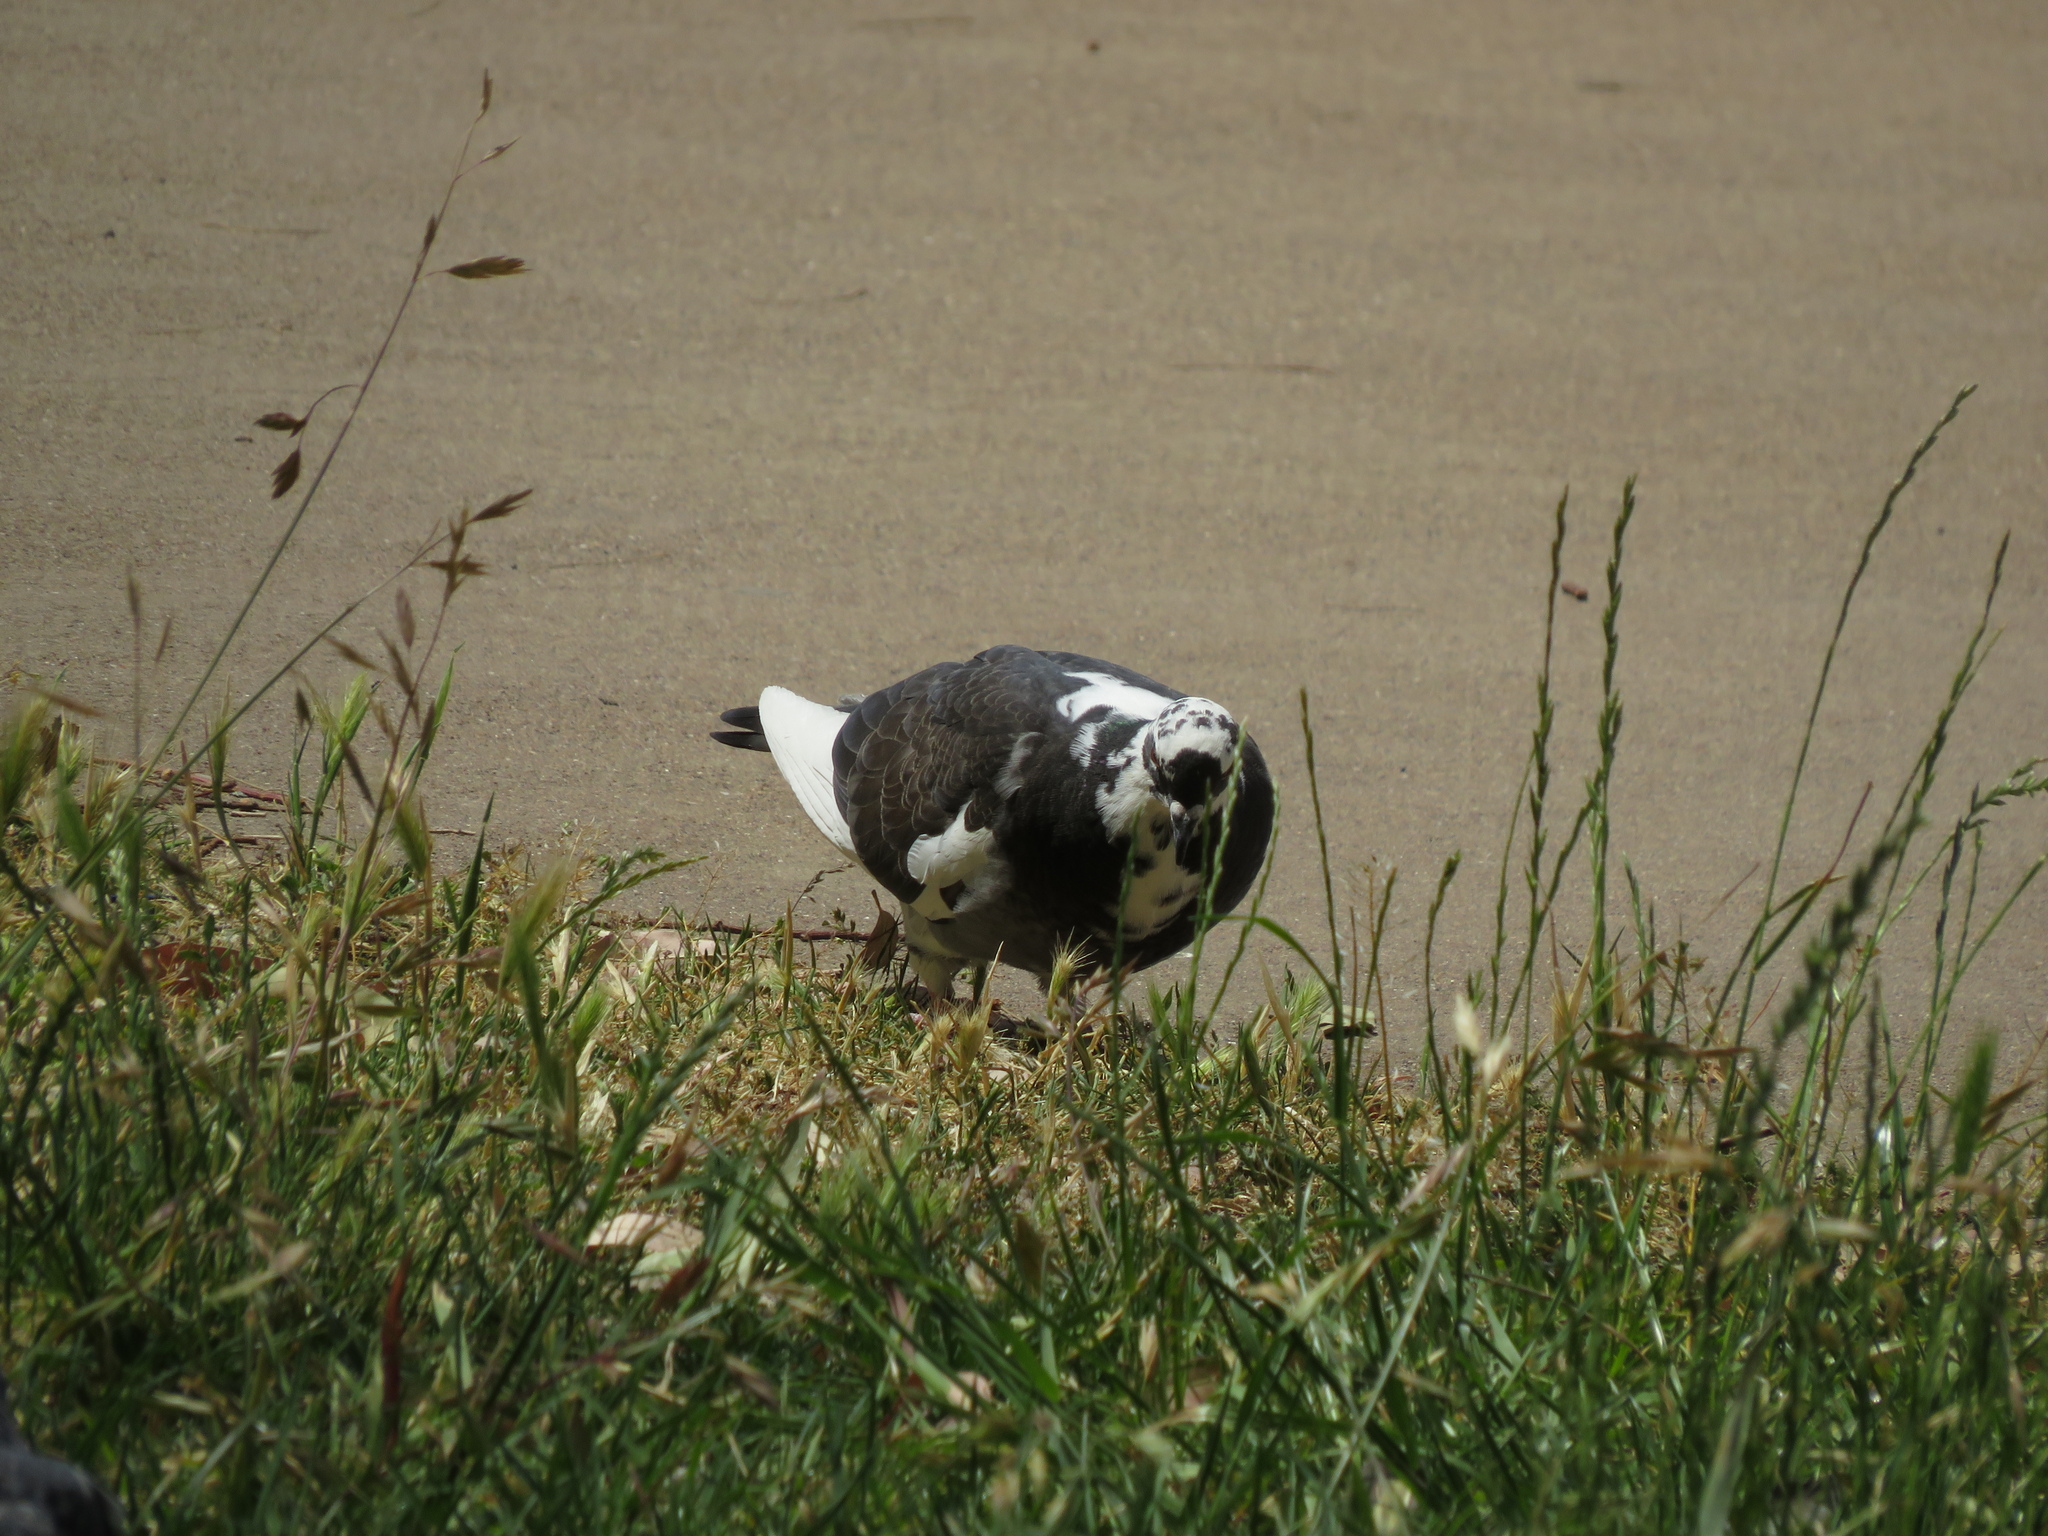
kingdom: Animalia
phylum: Chordata
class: Aves
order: Columbiformes
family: Columbidae
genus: Columba
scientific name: Columba livia
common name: Rock pigeon
